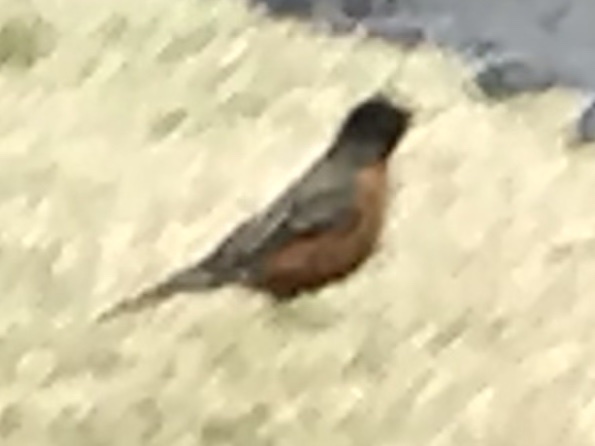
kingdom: Animalia
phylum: Chordata
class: Aves
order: Passeriformes
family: Turdidae
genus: Turdus
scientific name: Turdus migratorius
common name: American robin
